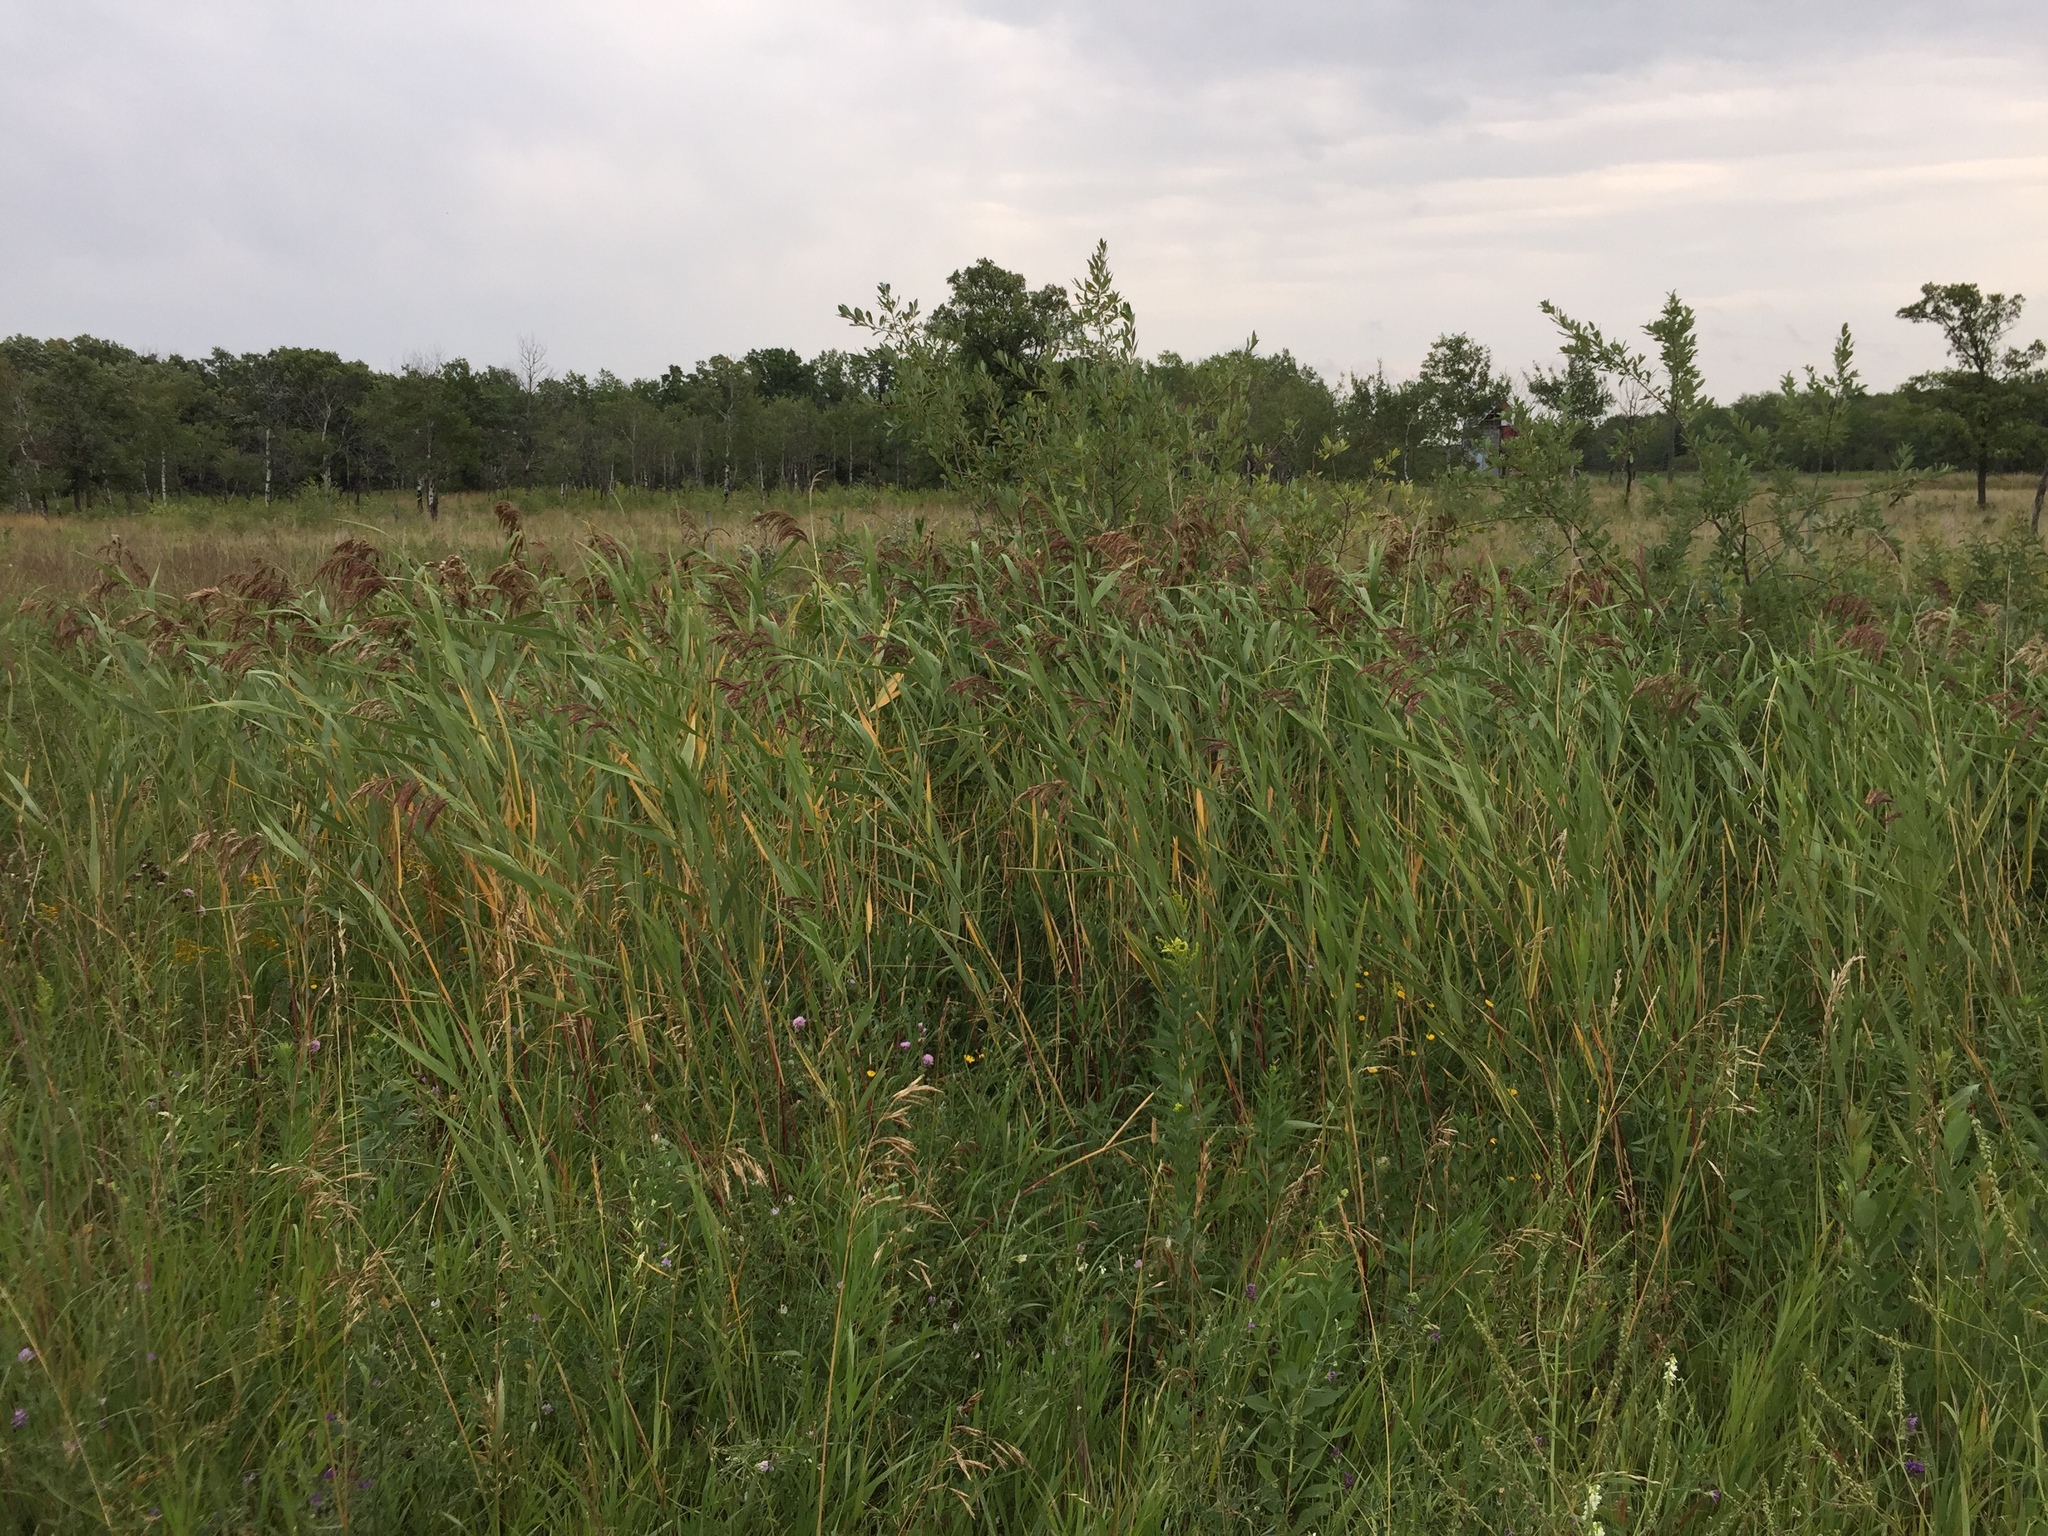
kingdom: Plantae
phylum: Tracheophyta
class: Liliopsida
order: Poales
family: Poaceae
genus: Phragmites
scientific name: Phragmites australis
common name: Common reed
